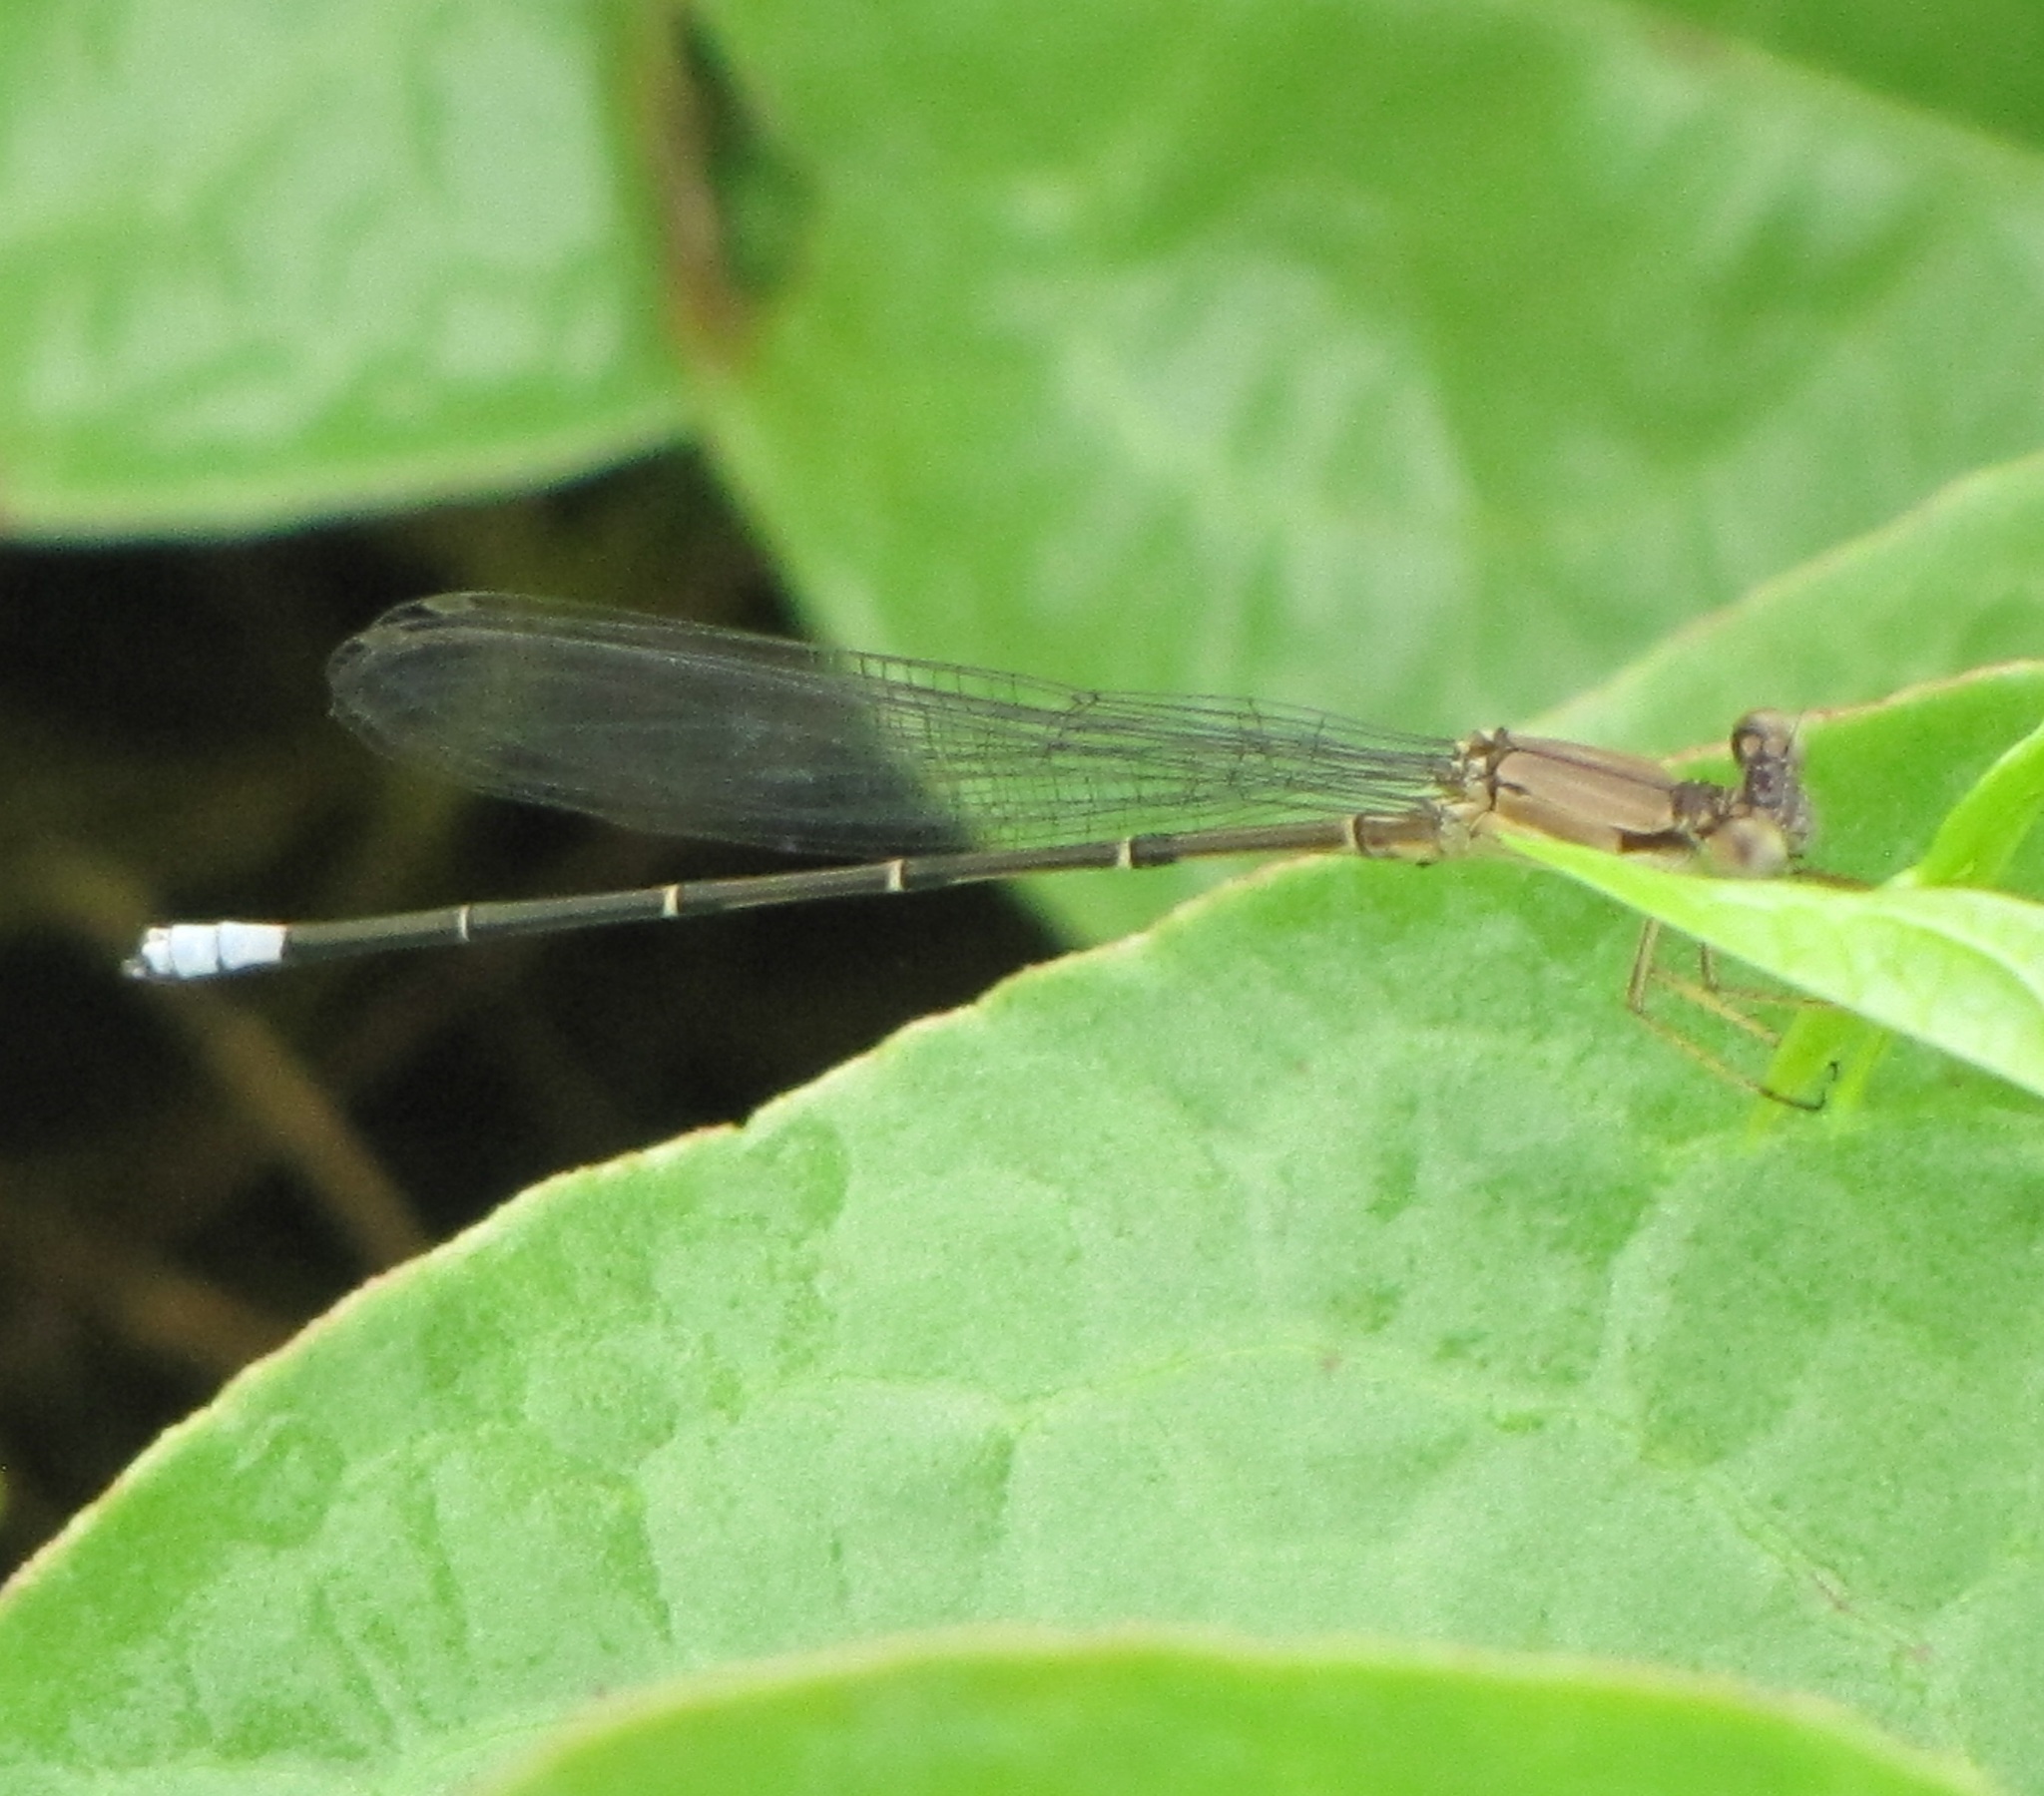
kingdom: Animalia
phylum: Arthropoda
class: Insecta
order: Odonata
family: Coenagrionidae
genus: Argia
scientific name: Argia apicalis
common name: Blue-fronted dancer
